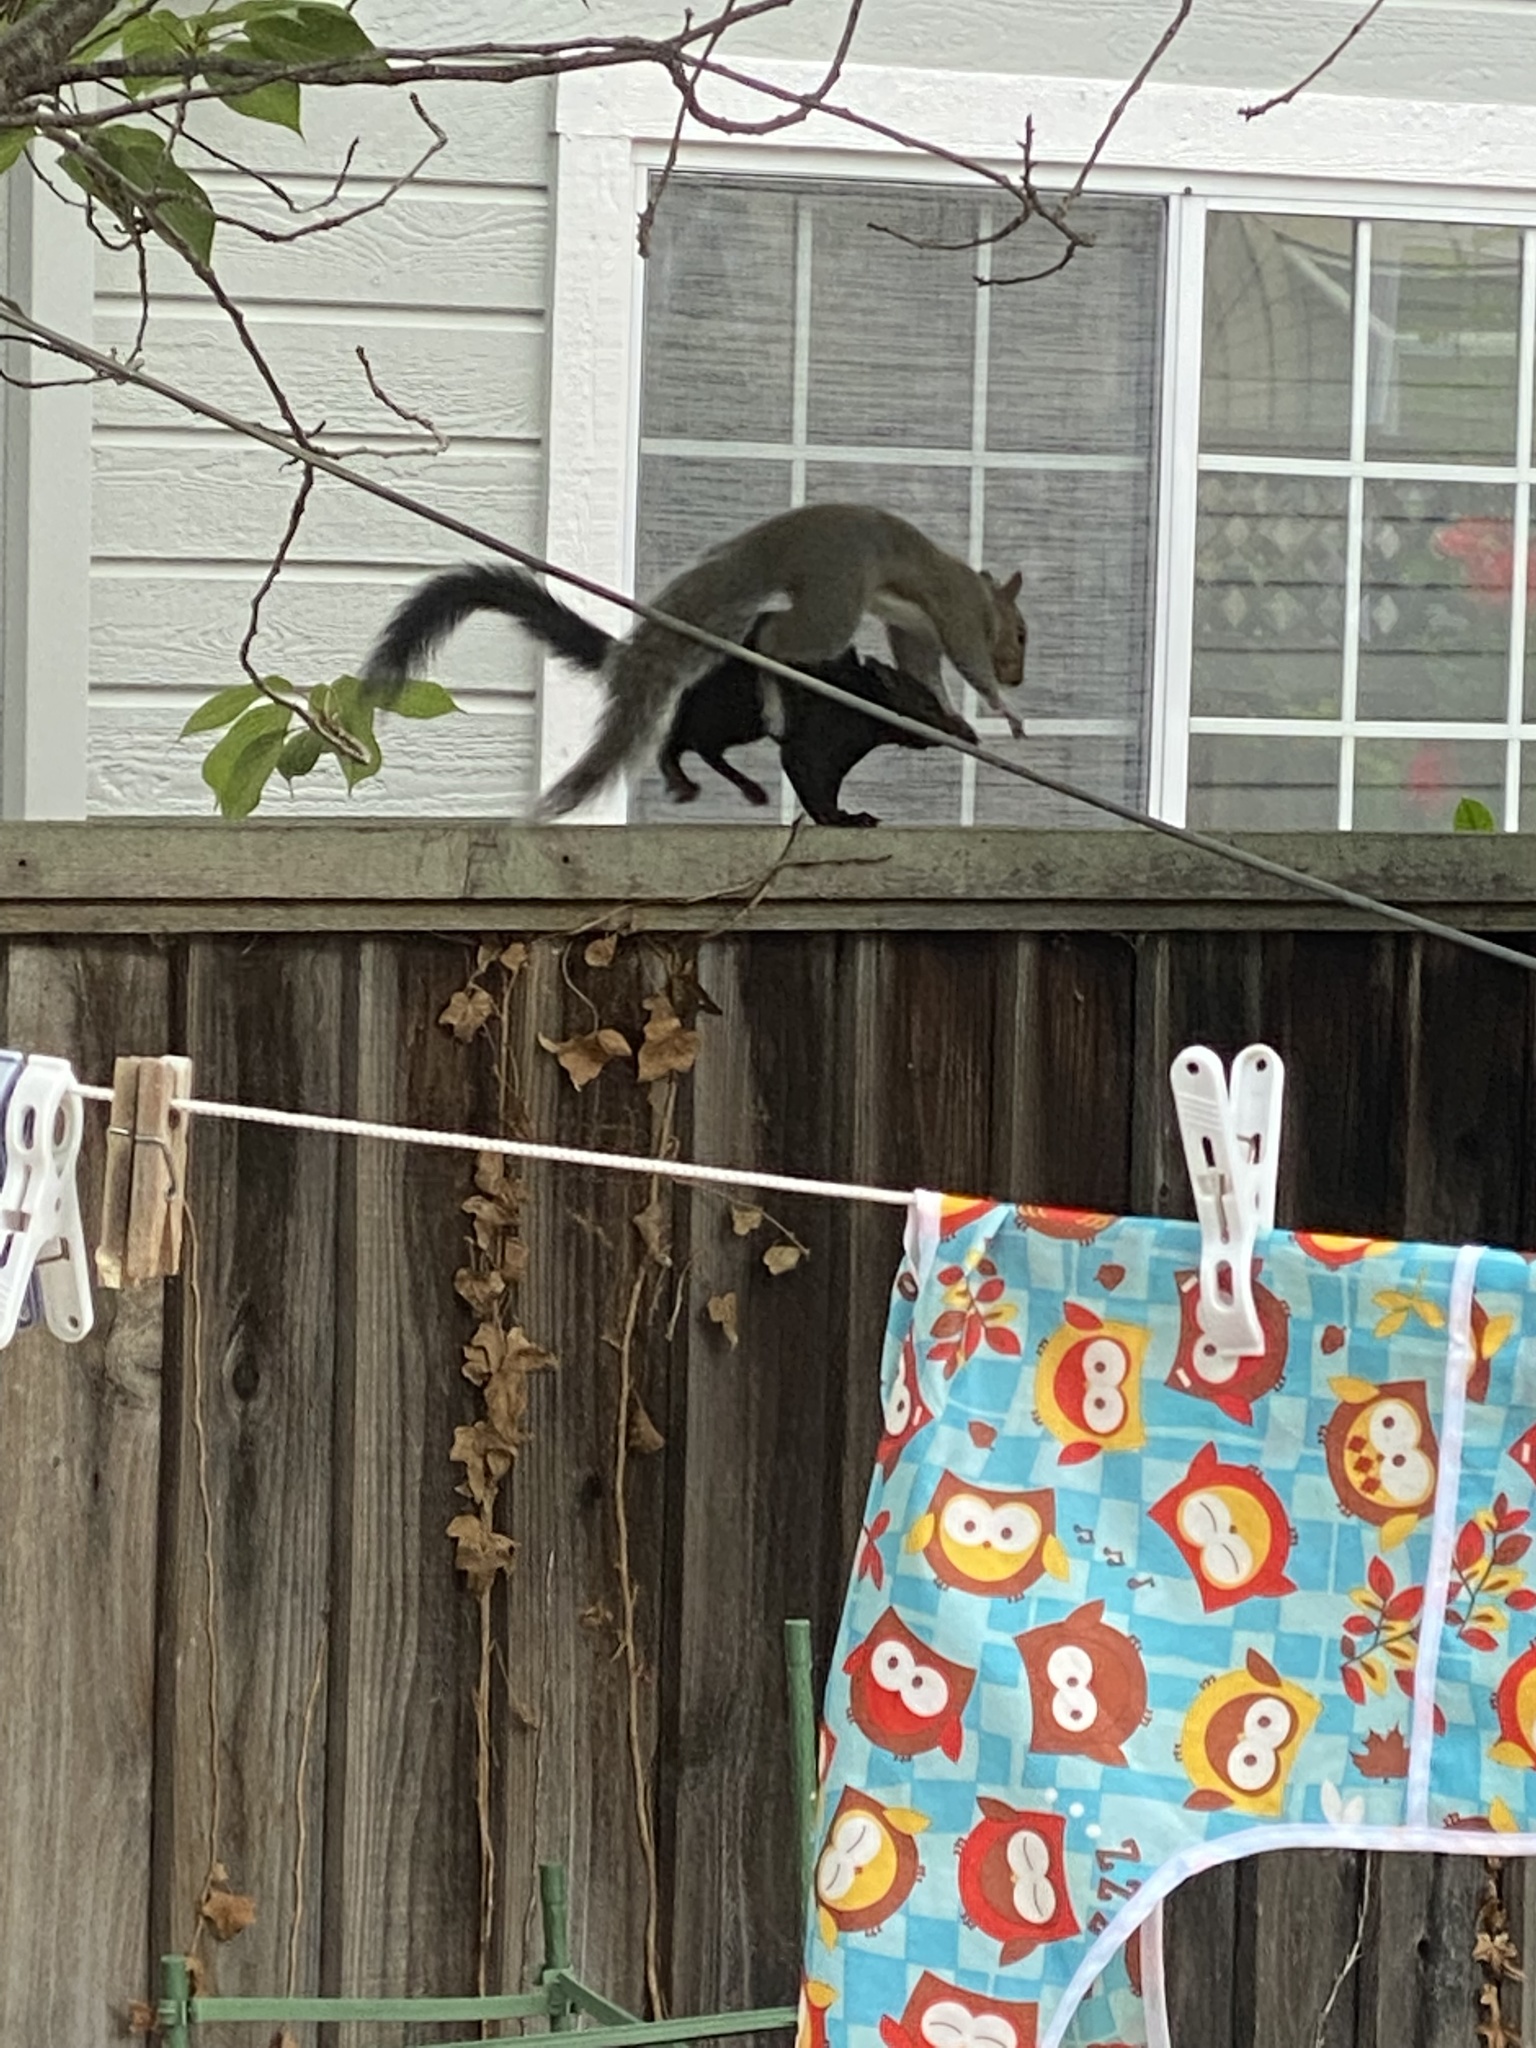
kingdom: Animalia
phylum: Chordata
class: Mammalia
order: Rodentia
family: Sciuridae
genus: Sciurus
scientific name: Sciurus carolinensis
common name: Eastern gray squirrel
